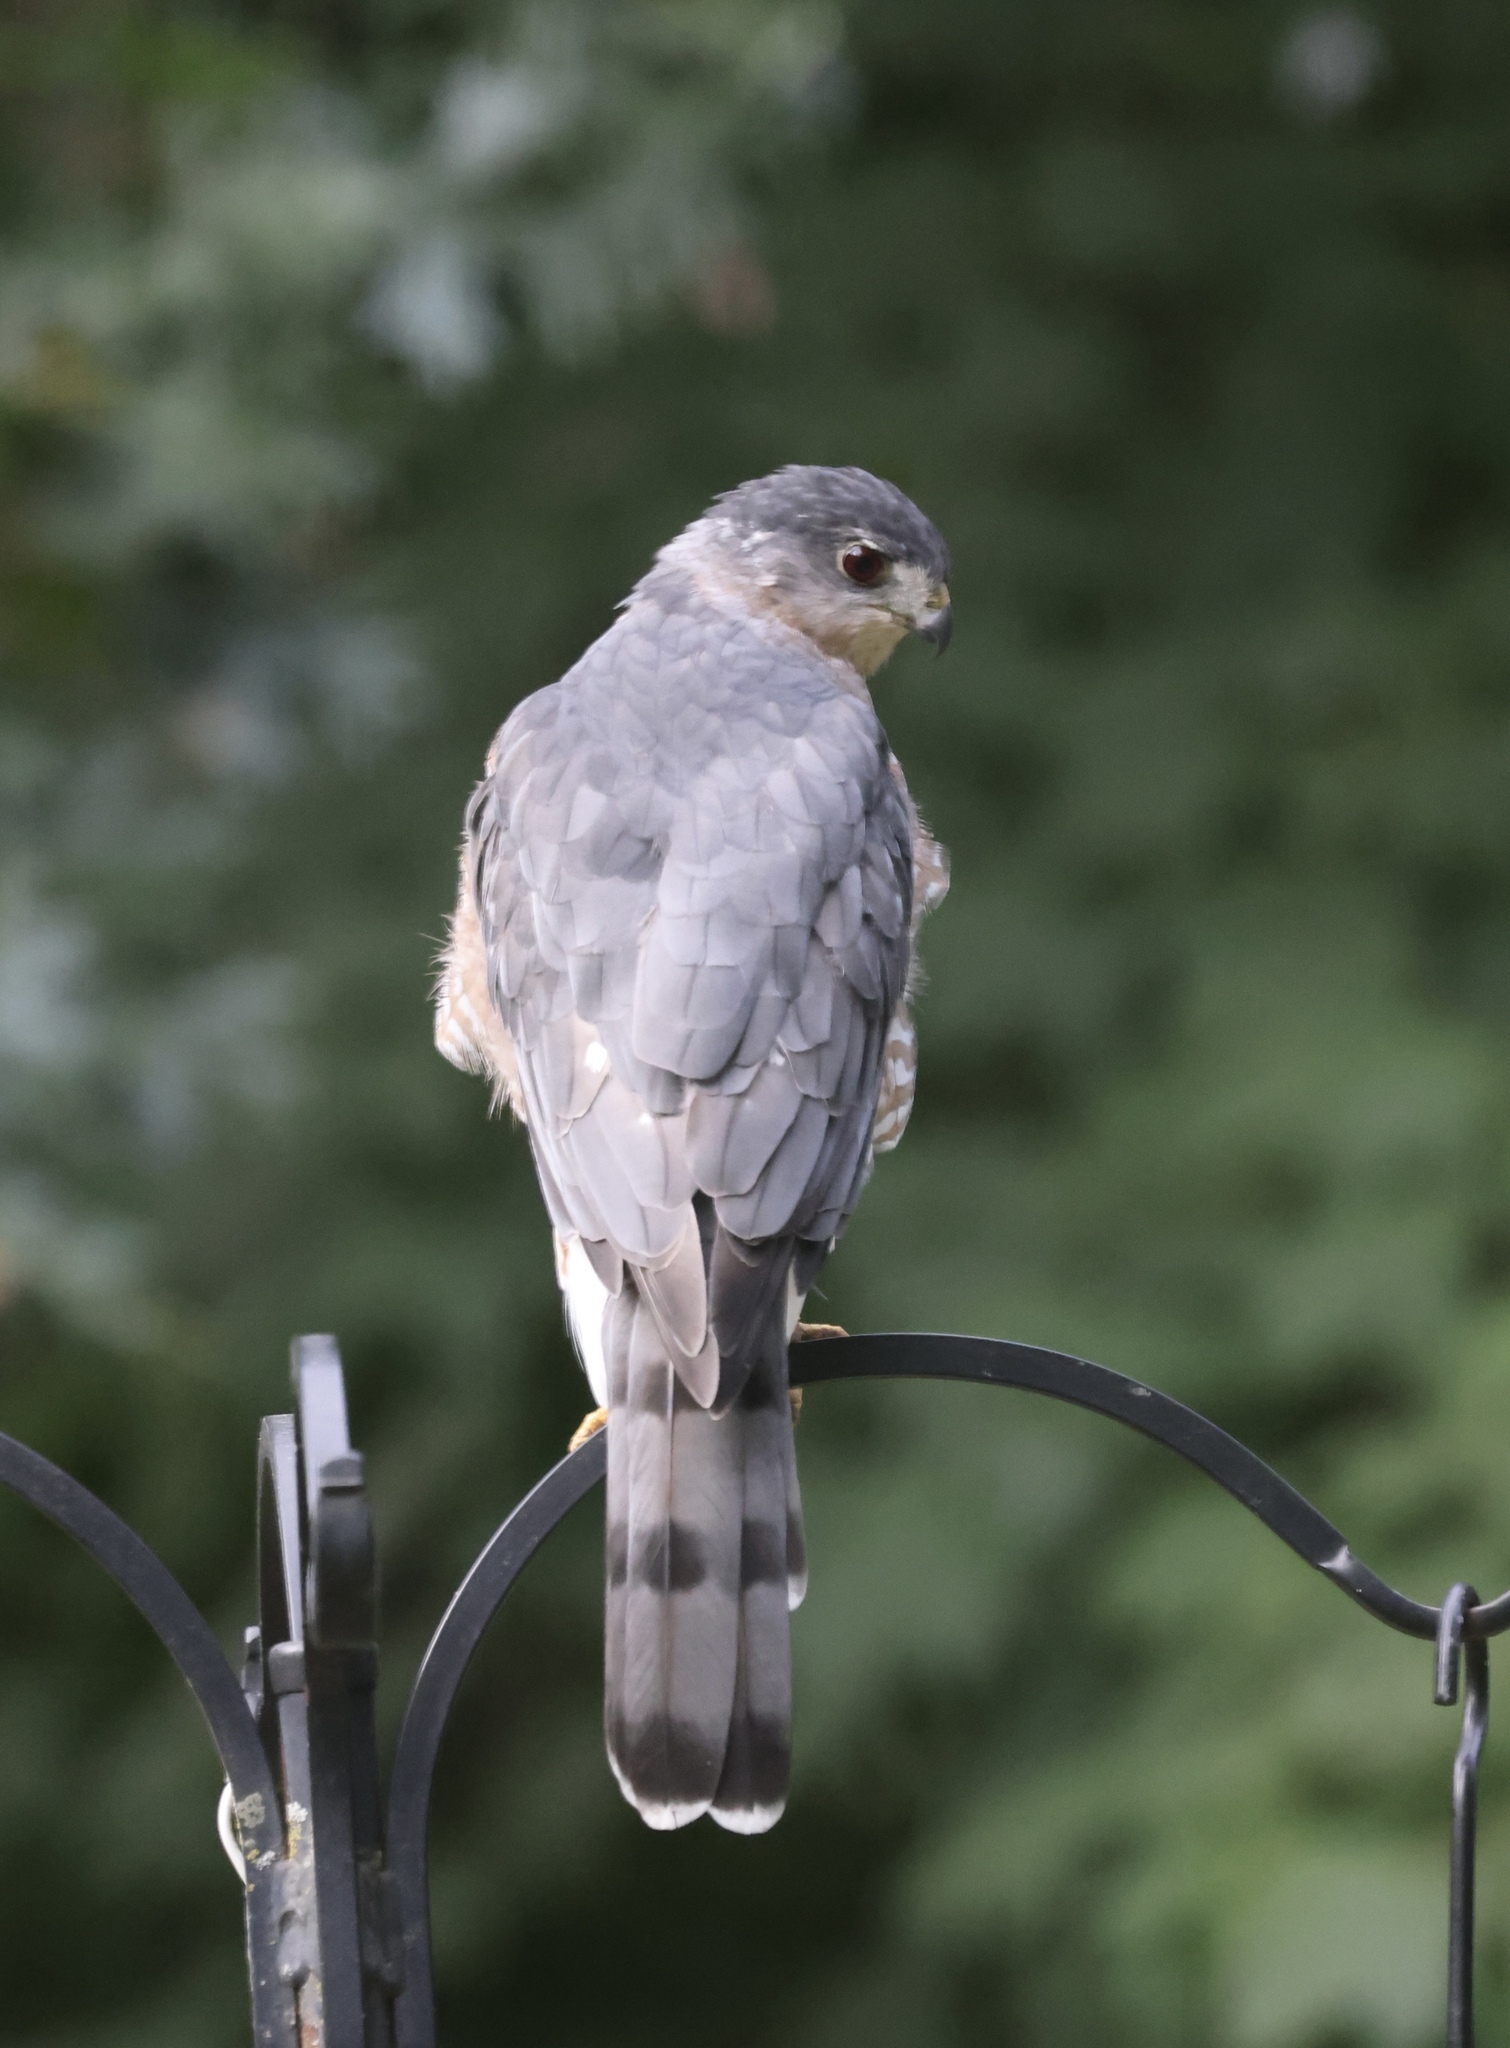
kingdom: Animalia
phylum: Chordata
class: Aves
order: Accipitriformes
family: Accipitridae
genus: Accipiter
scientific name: Accipiter cooperii
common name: Cooper's hawk
